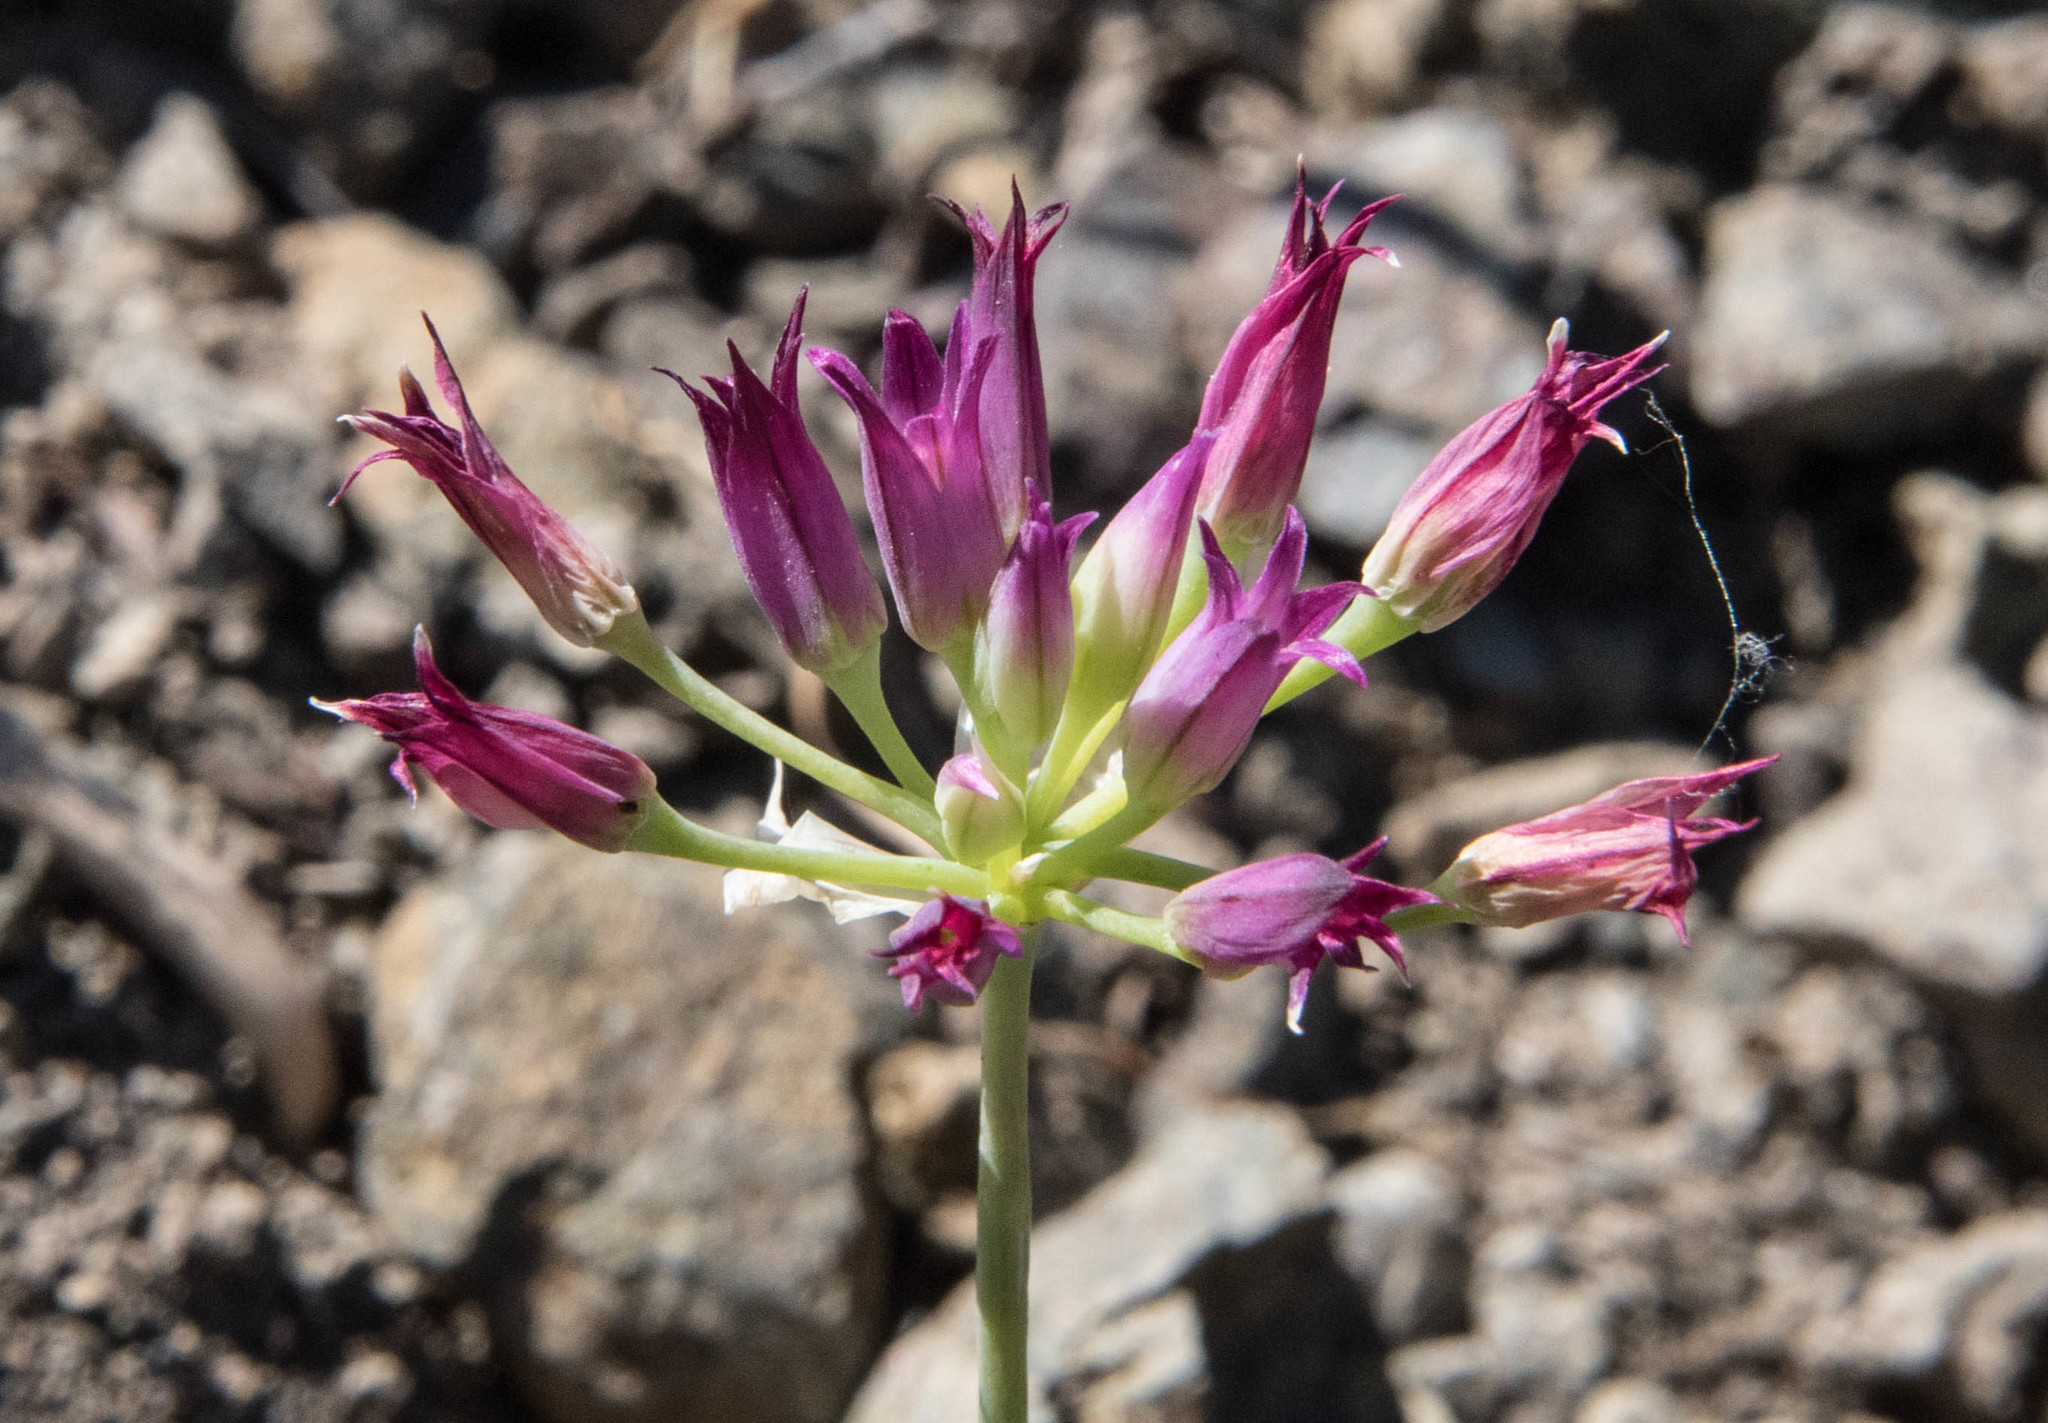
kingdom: Plantae
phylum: Tracheophyta
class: Liliopsida
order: Asparagales
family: Amaryllidaceae
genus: Allium
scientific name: Allium bolanderi
